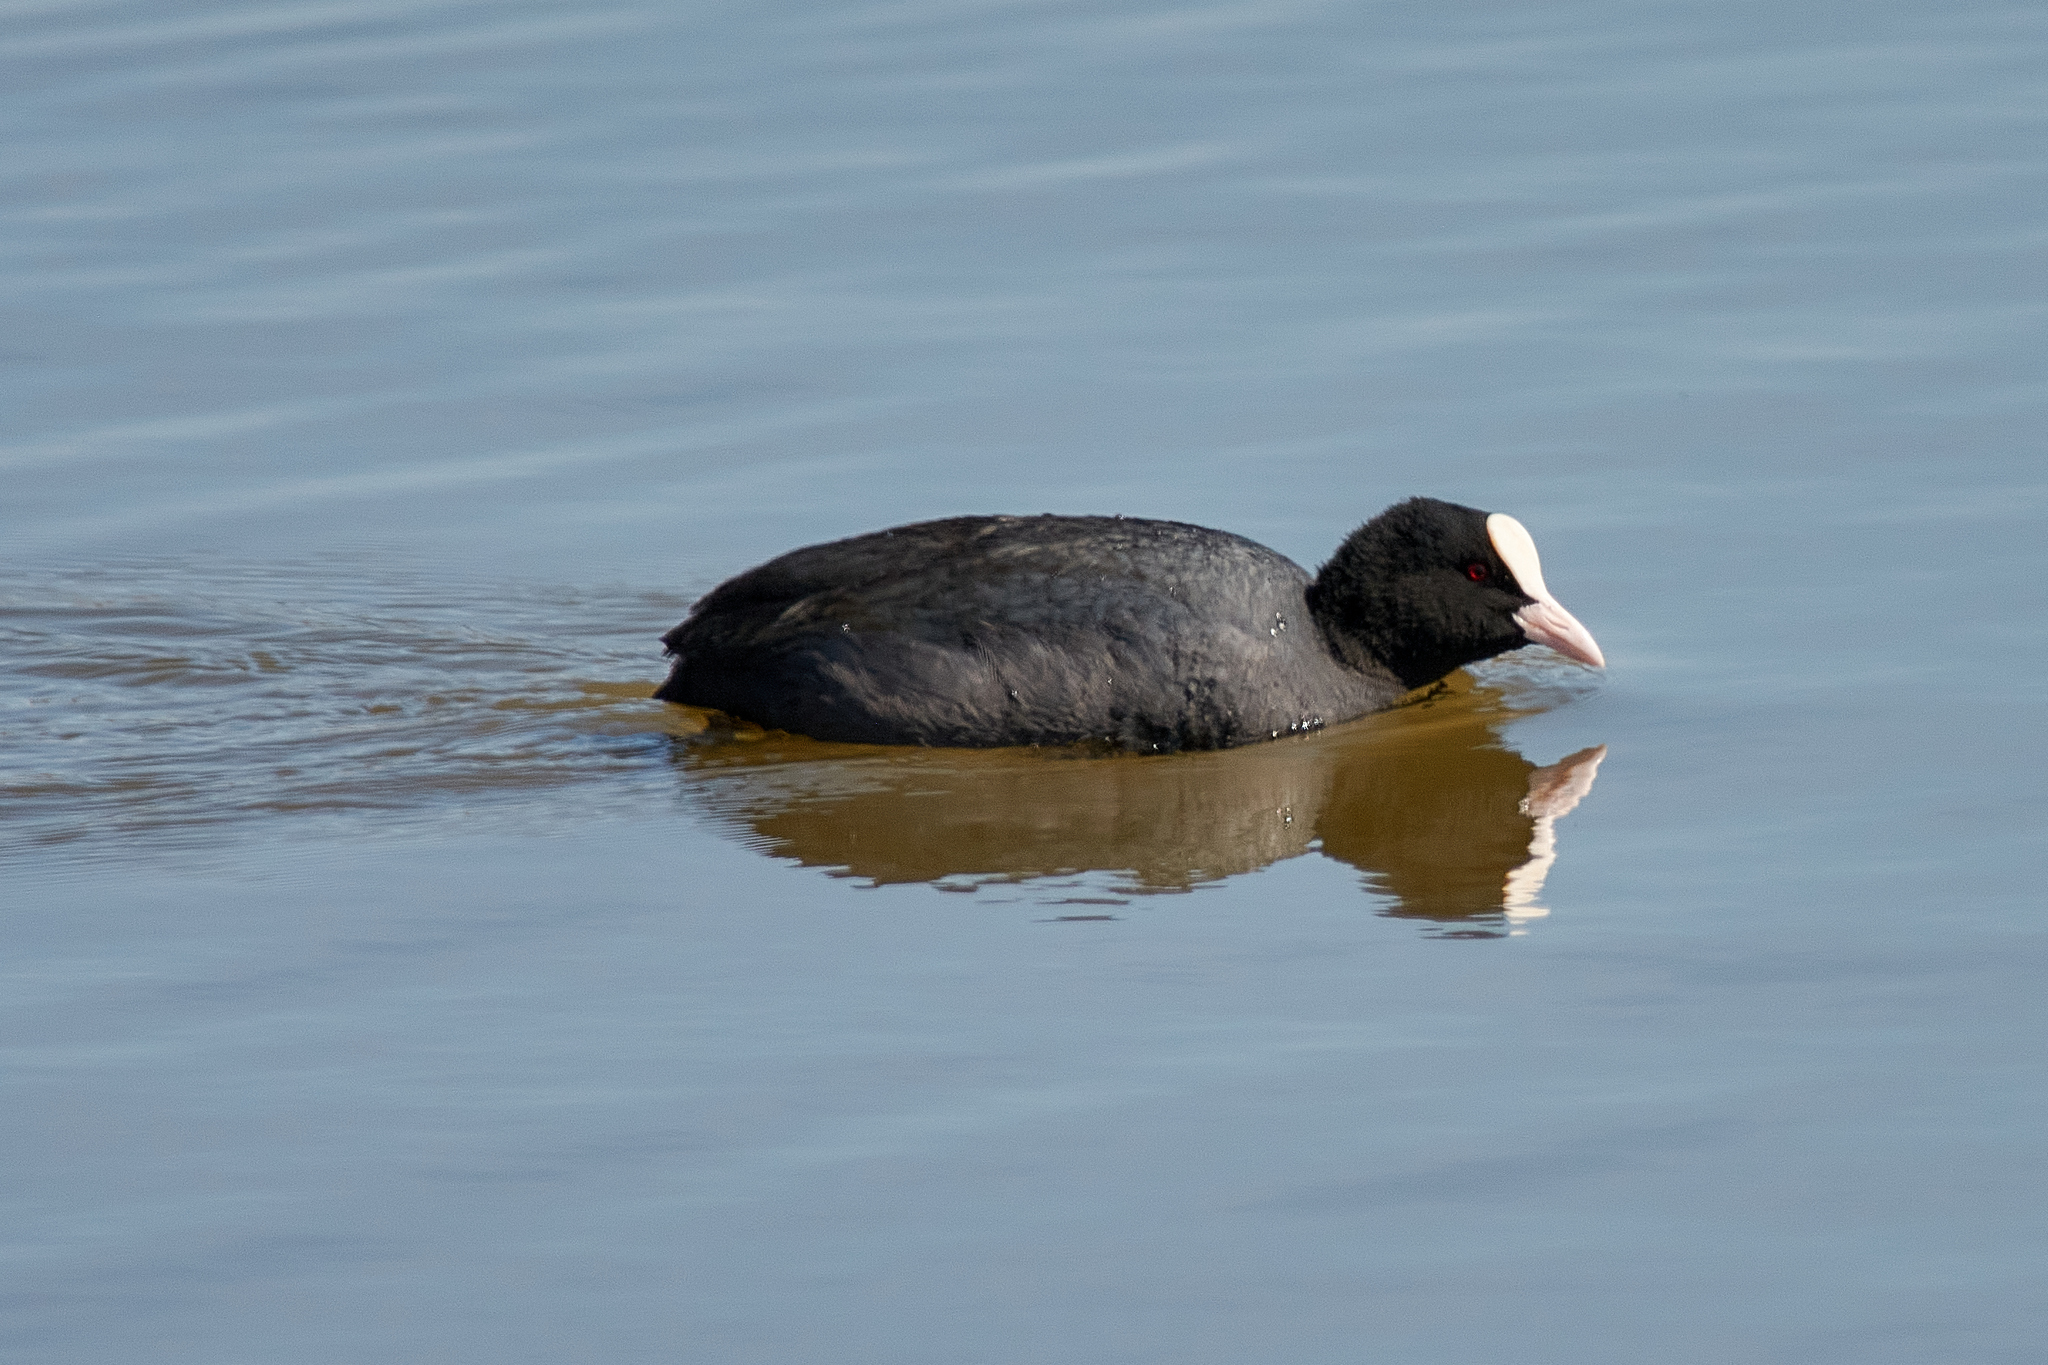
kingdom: Animalia
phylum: Chordata
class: Aves
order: Gruiformes
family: Rallidae
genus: Fulica
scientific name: Fulica atra
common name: Eurasian coot
